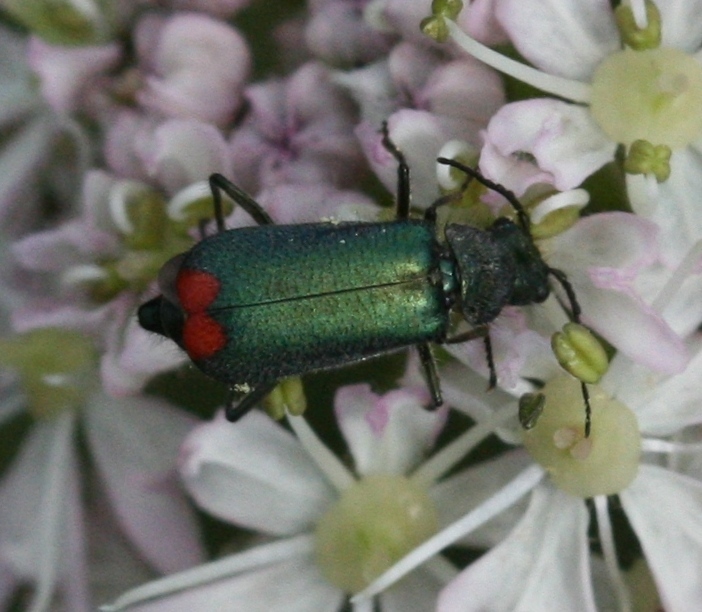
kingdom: Animalia
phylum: Arthropoda
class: Insecta
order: Coleoptera
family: Melyridae
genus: Malachius
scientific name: Malachius bipustulatus
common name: Malachite beetle
